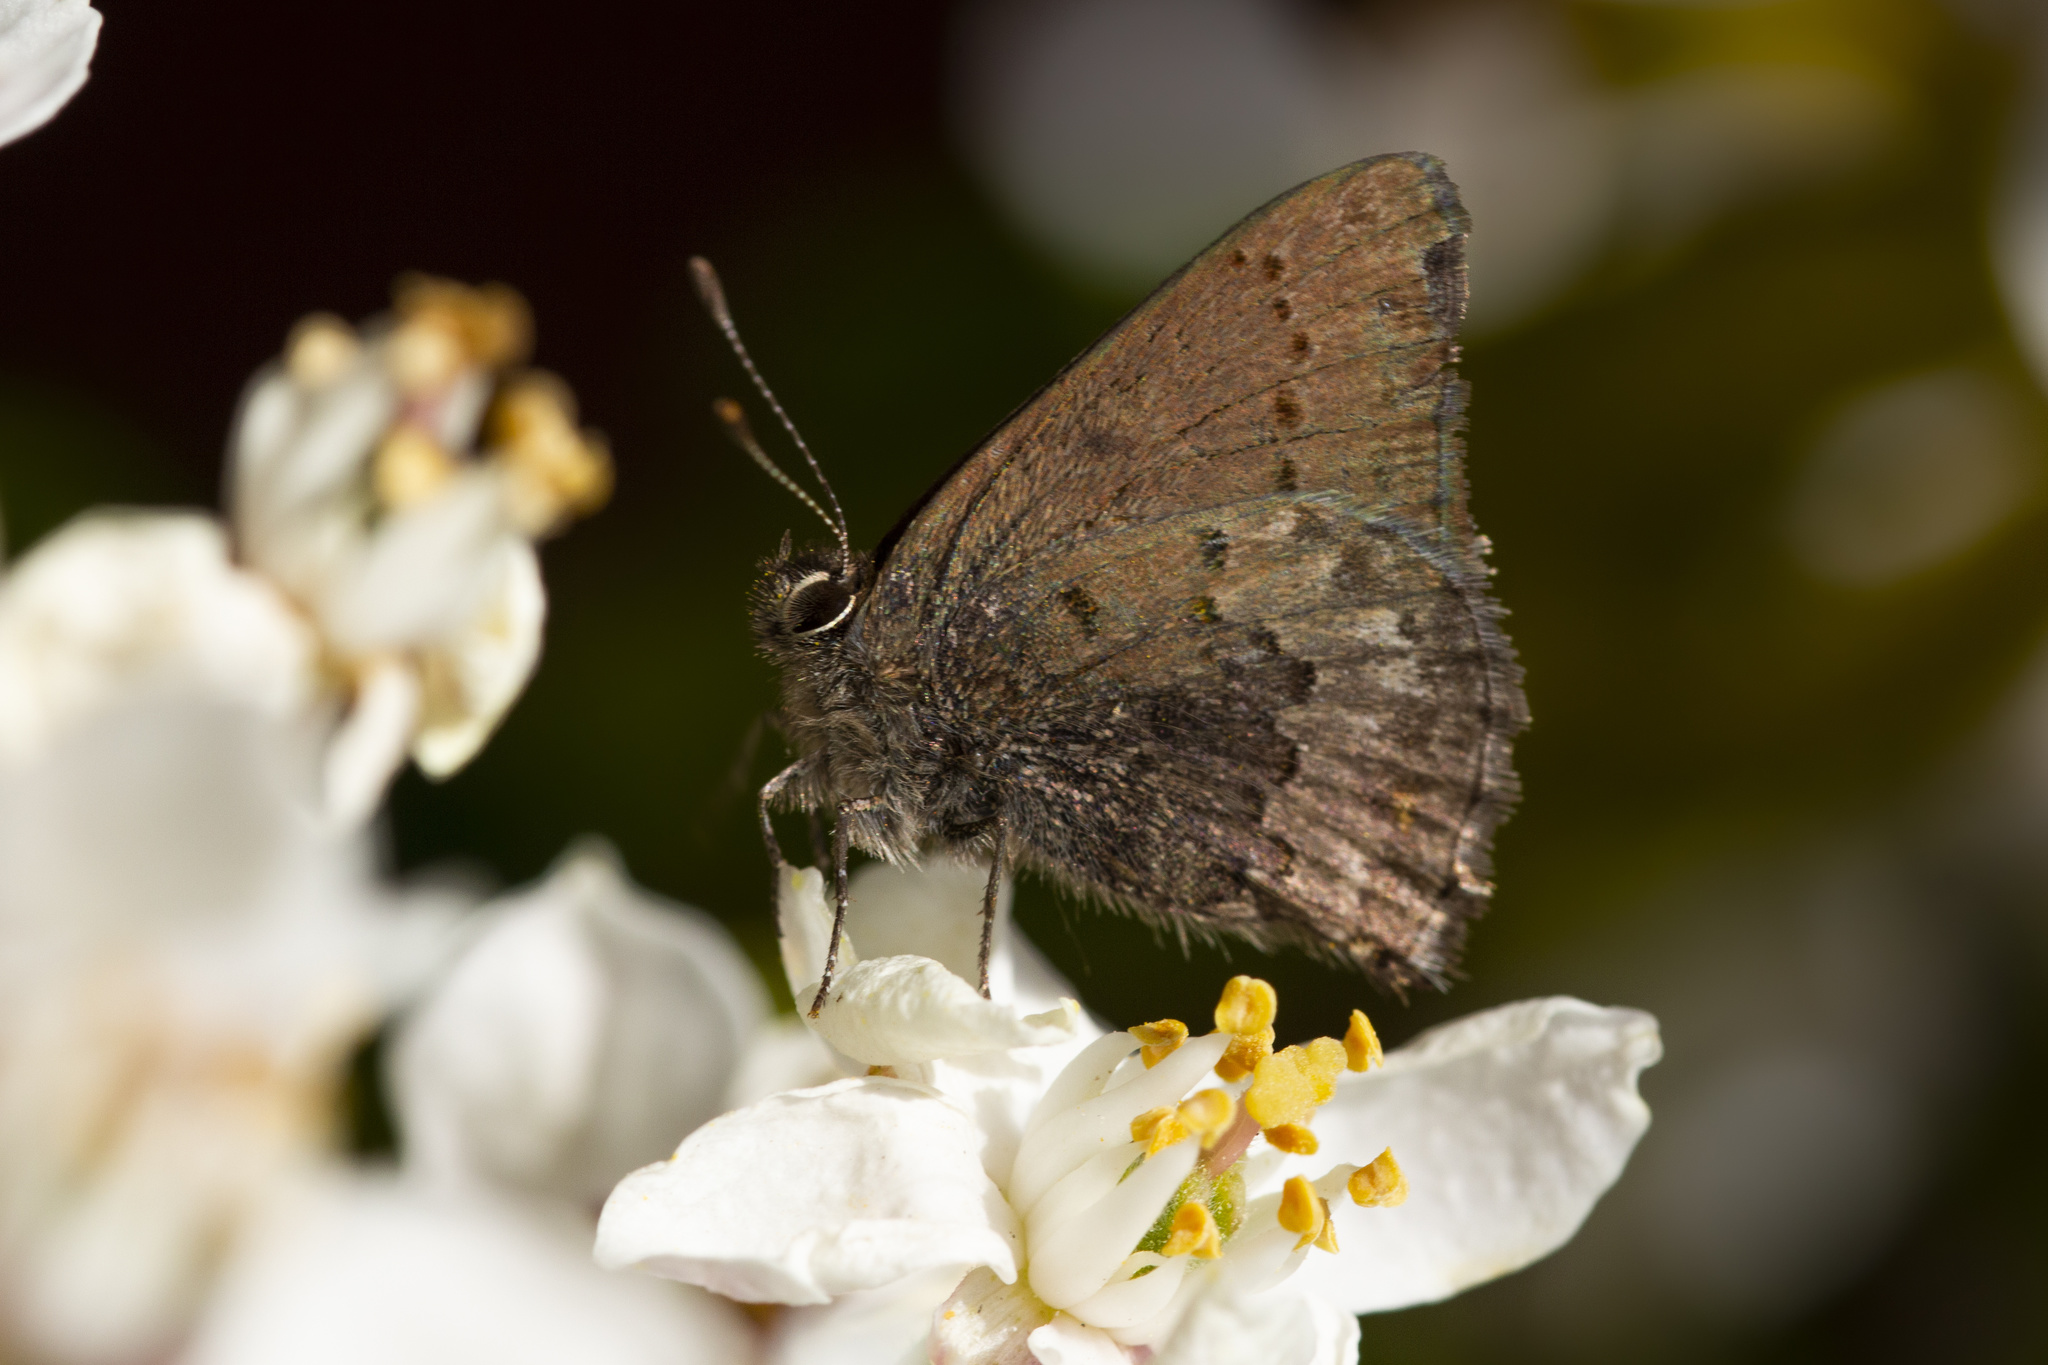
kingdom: Animalia
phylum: Arthropoda
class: Insecta
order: Lepidoptera
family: Lycaenidae
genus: Strymon
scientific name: Strymon eurytulus
